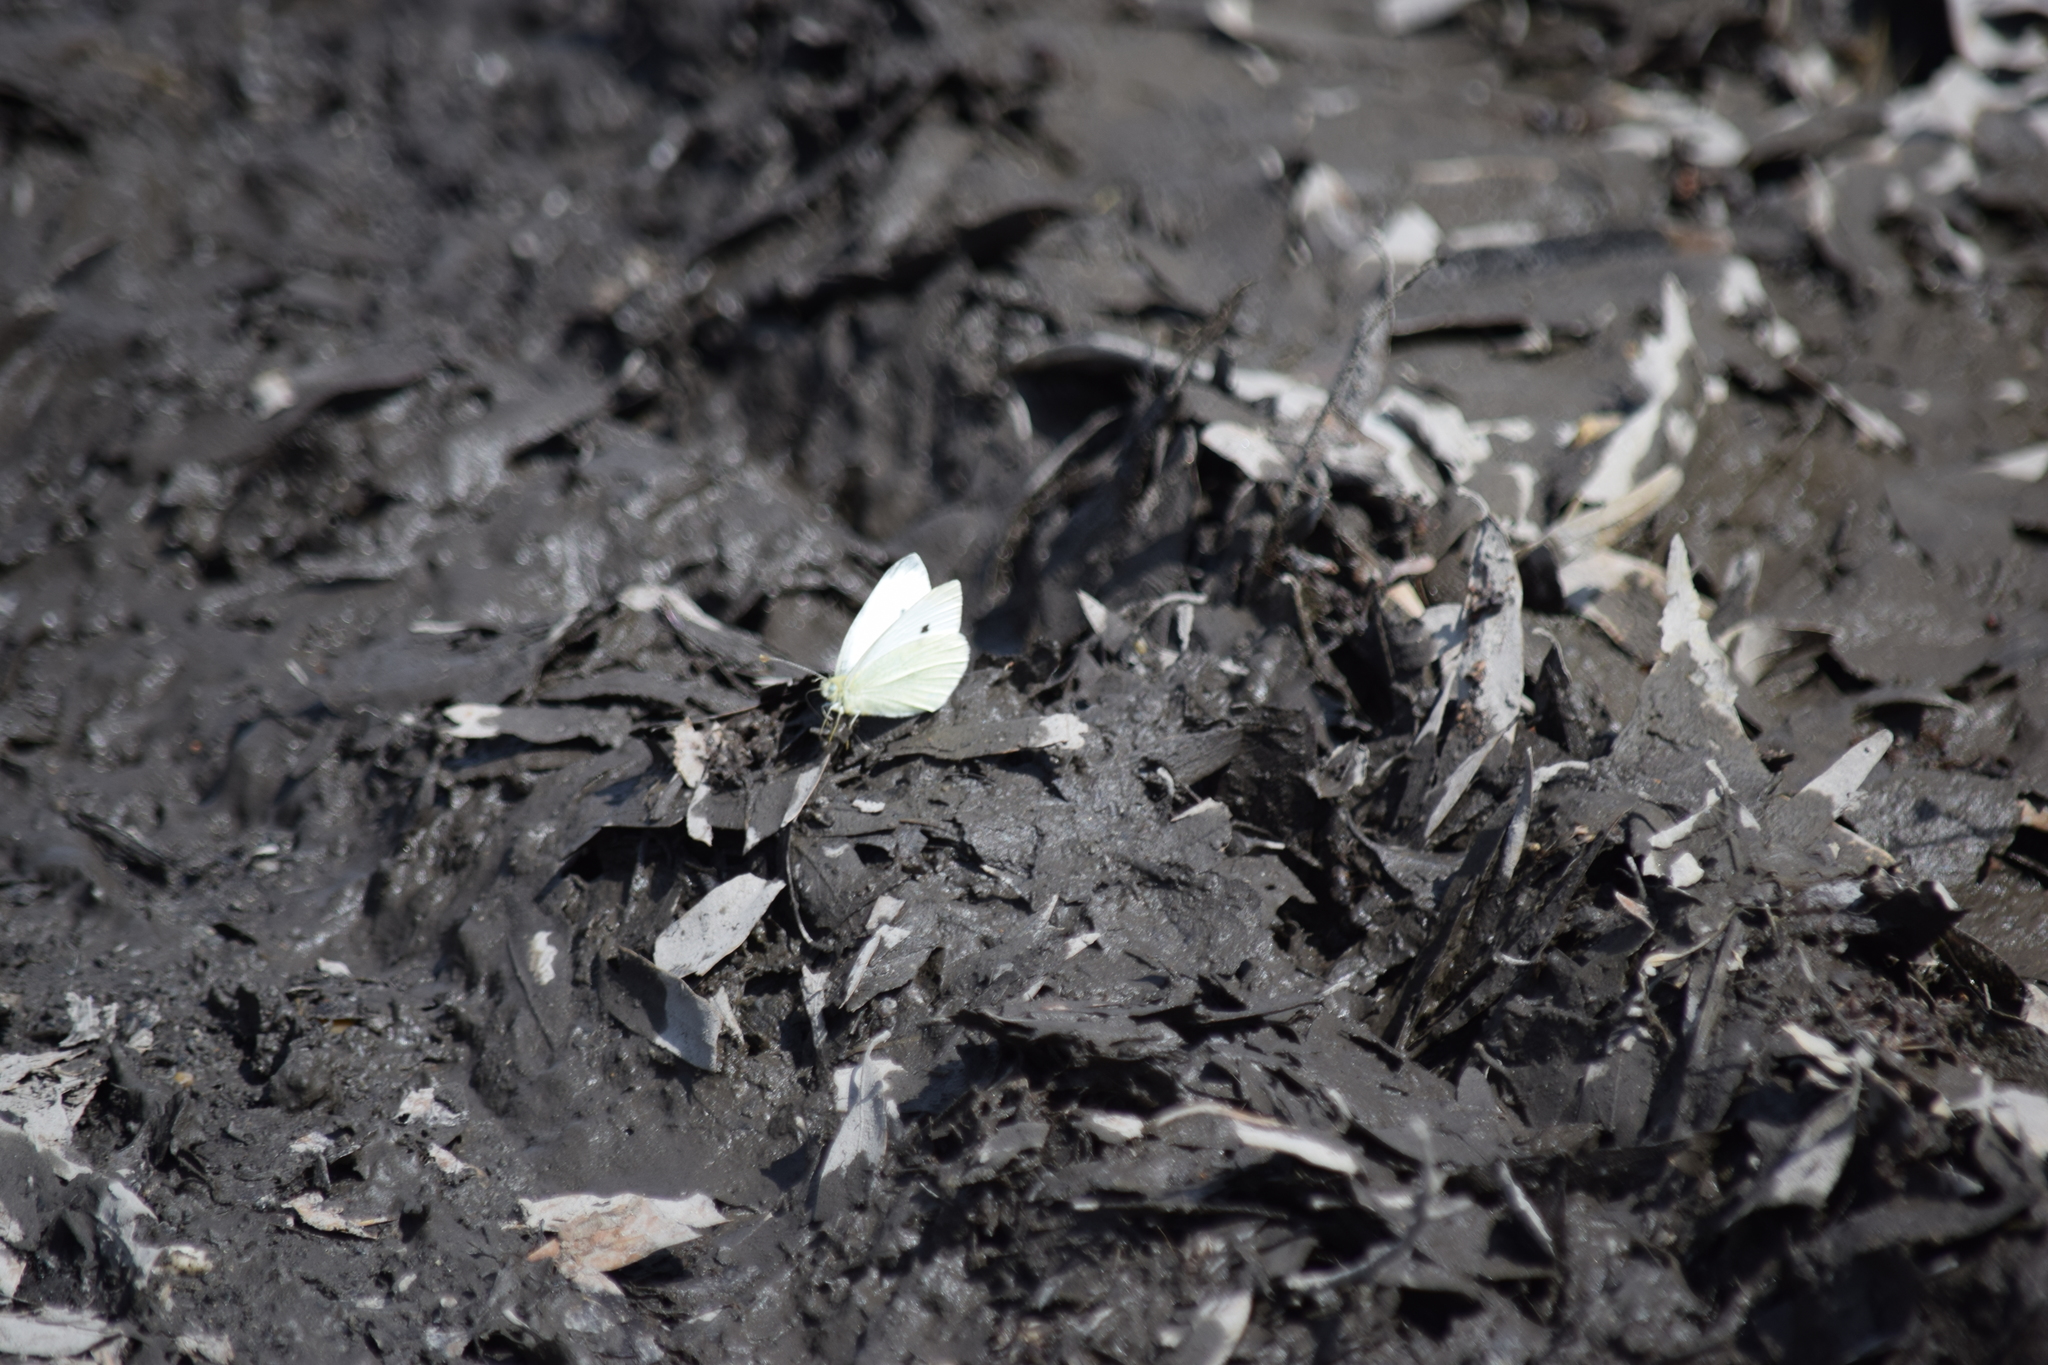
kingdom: Animalia
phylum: Arthropoda
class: Insecta
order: Lepidoptera
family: Pieridae
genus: Pieris
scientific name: Pieris rapae
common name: Small white
